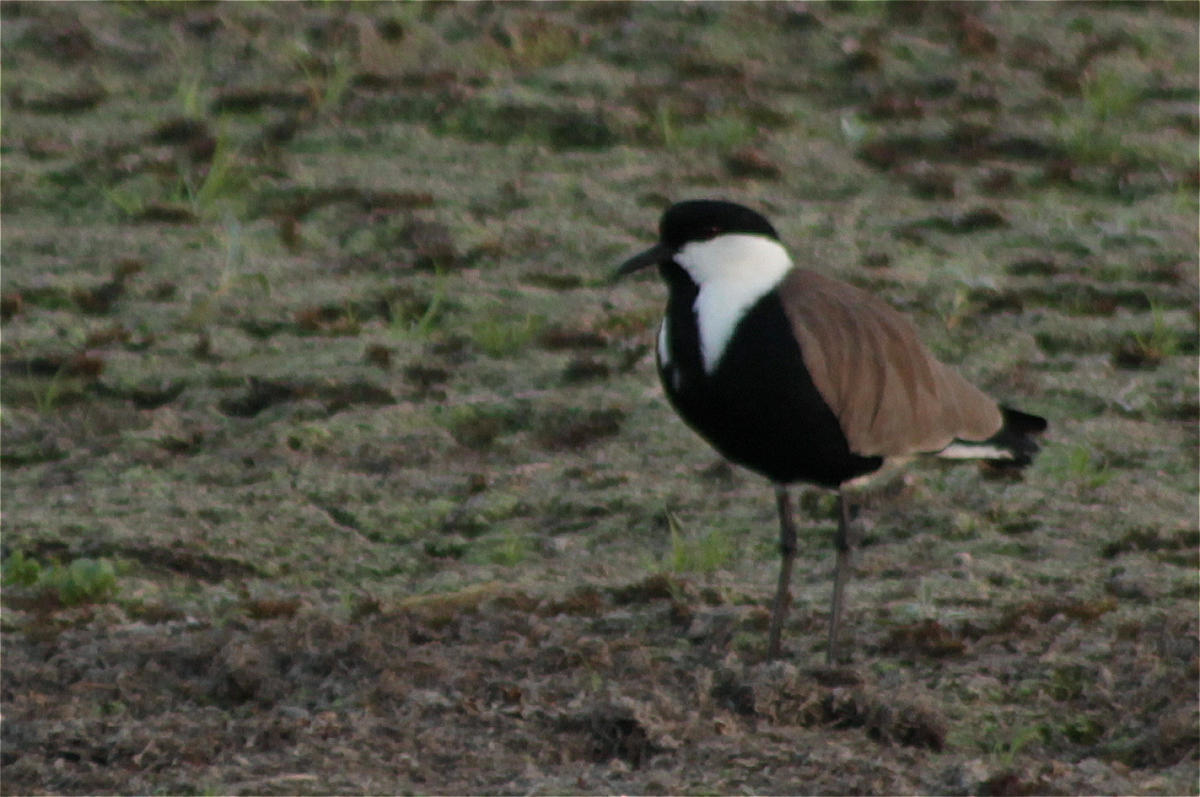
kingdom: Animalia
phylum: Chordata
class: Aves
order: Charadriiformes
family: Charadriidae
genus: Vanellus
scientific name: Vanellus spinosus
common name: Spur-winged lapwing
